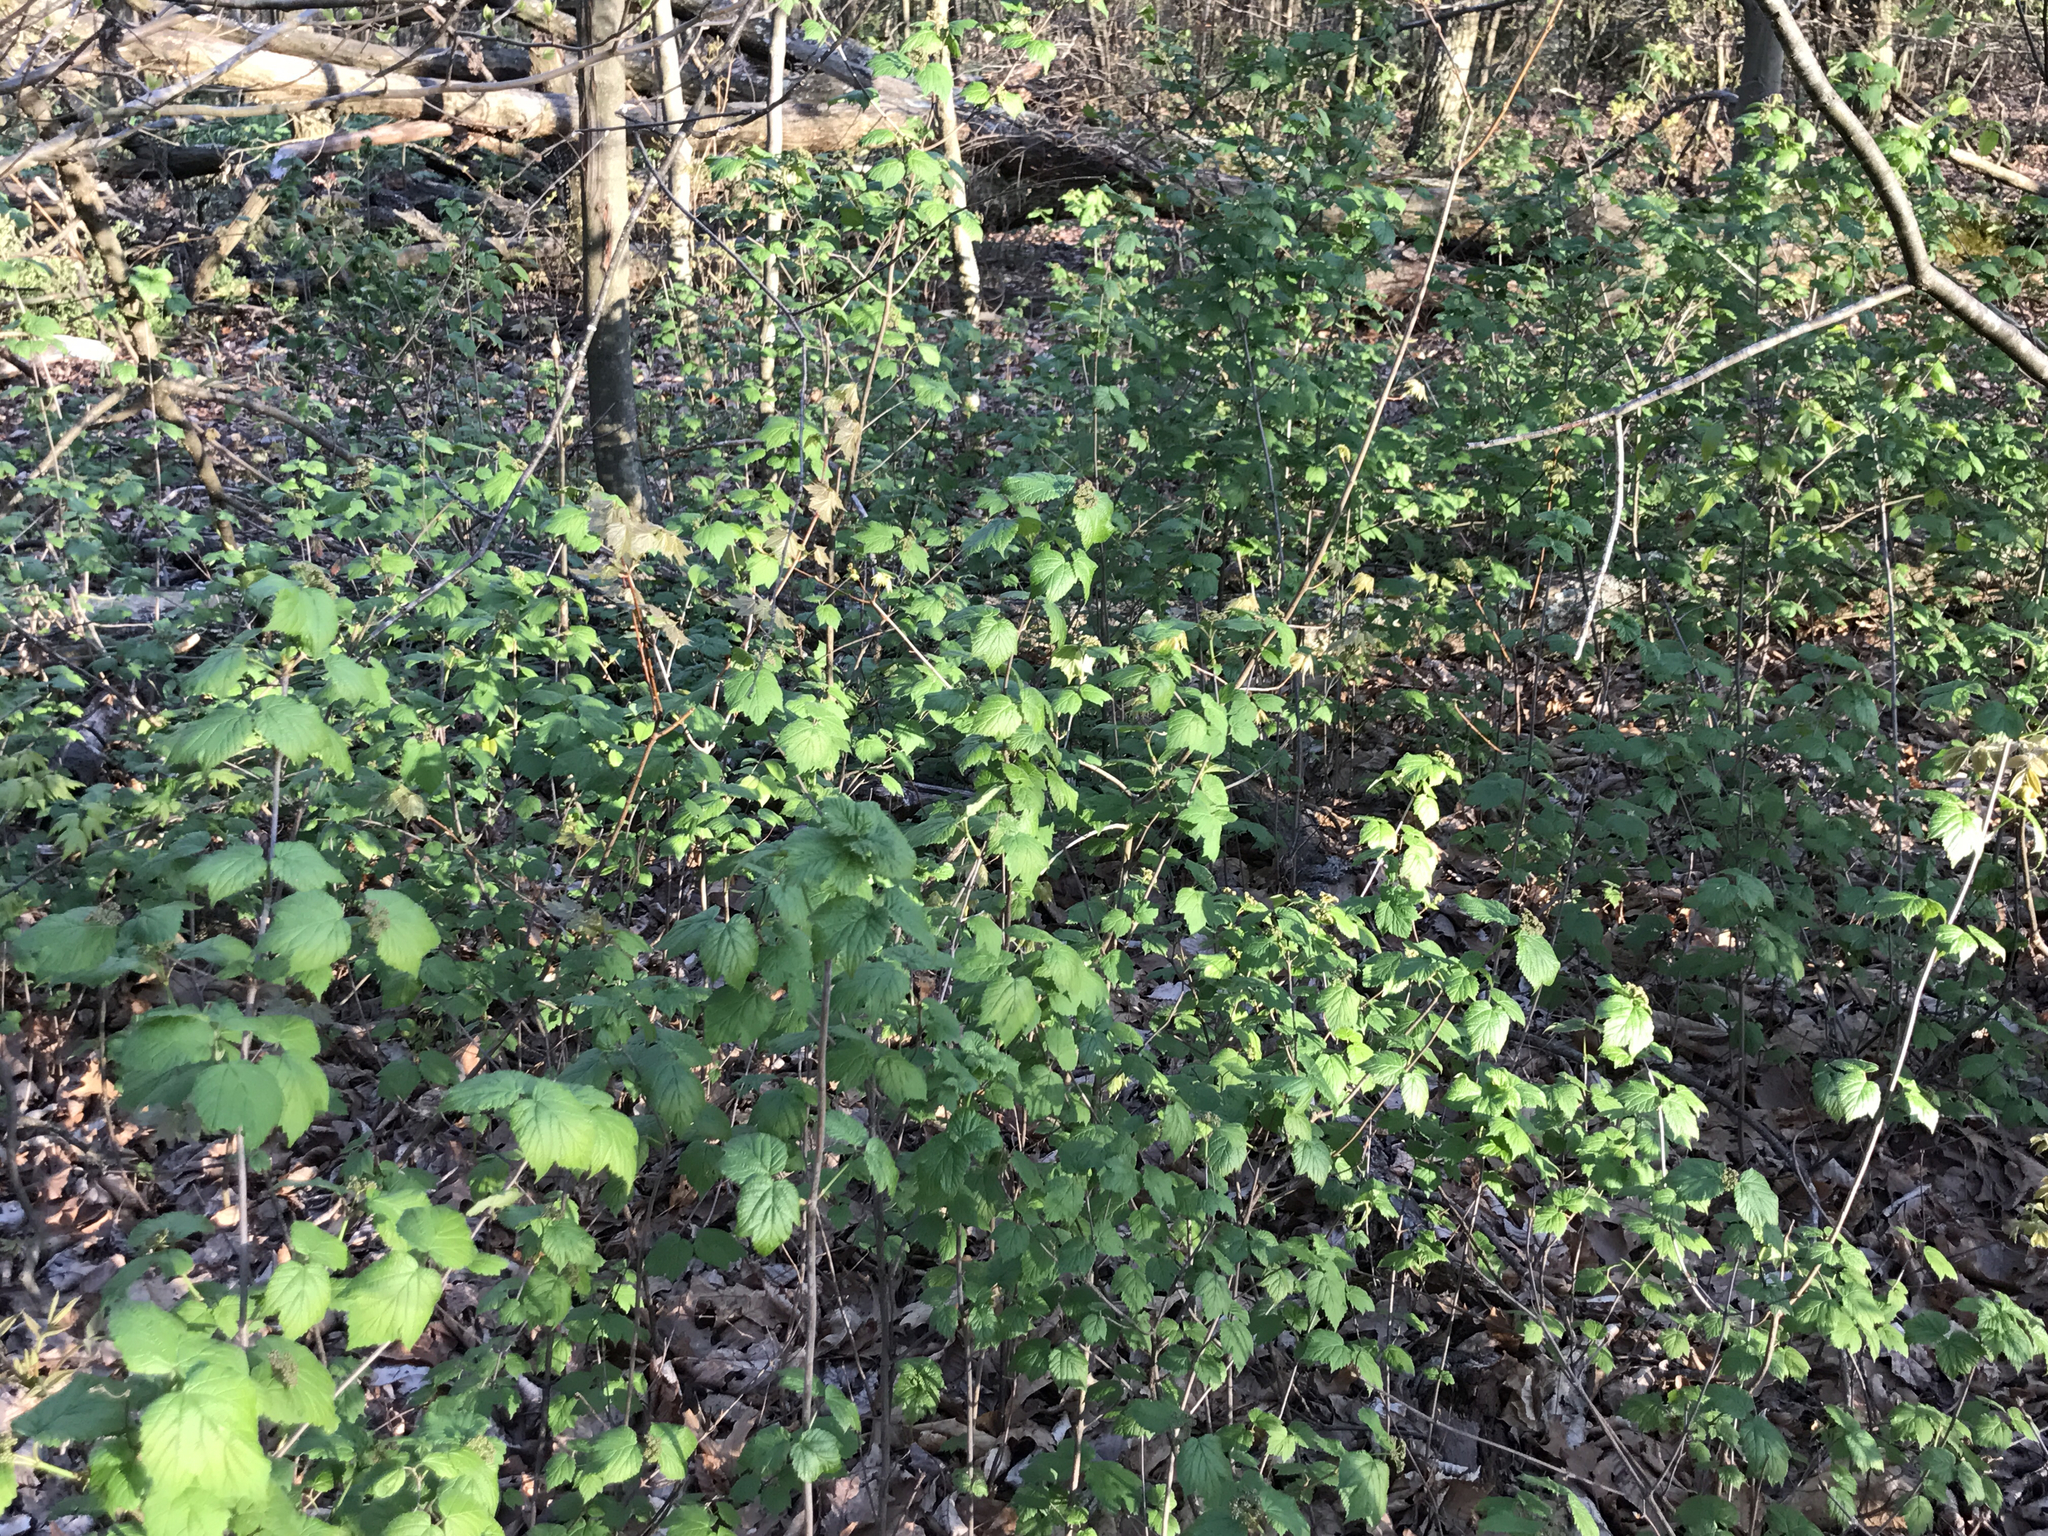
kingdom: Plantae
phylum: Tracheophyta
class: Magnoliopsida
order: Dipsacales
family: Viburnaceae
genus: Viburnum
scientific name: Viburnum acerifolium
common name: Dockmackie
